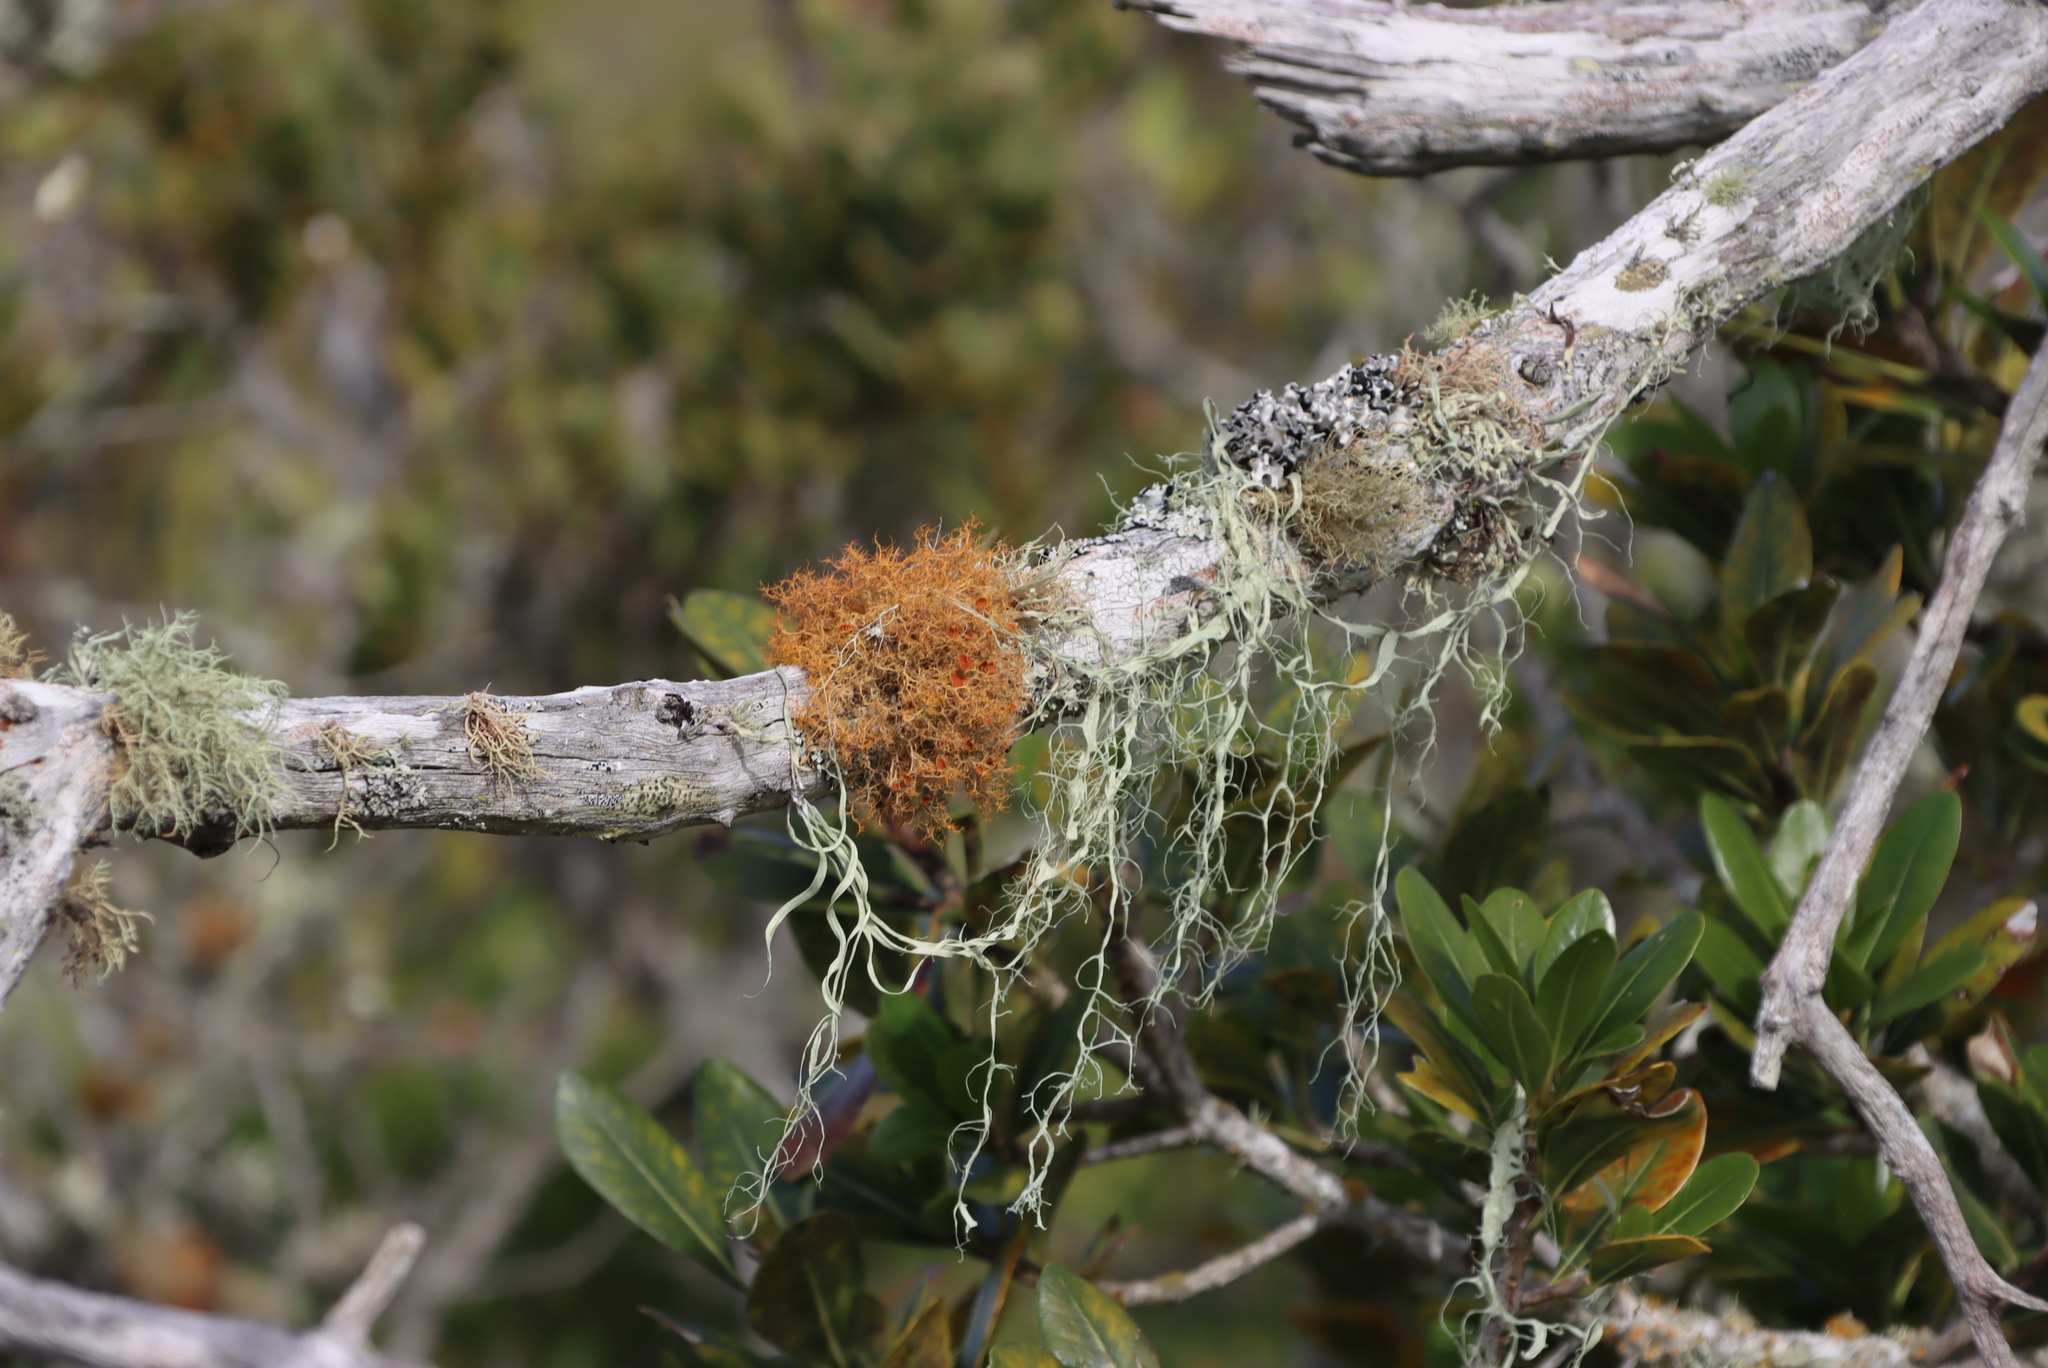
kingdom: Fungi
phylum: Ascomycota
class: Lecanoromycetes
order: Teloschistales
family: Teloschistaceae
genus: Teloschistes
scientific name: Teloschistes capensis
